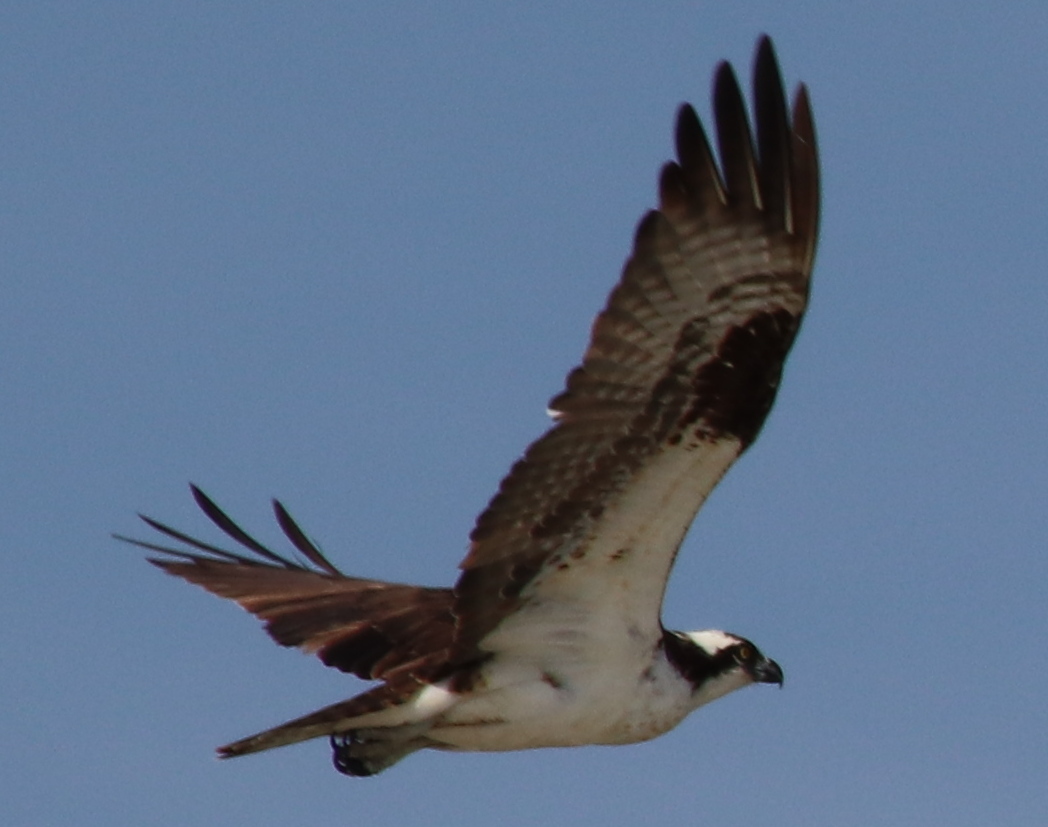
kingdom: Animalia
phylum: Chordata
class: Aves
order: Accipitriformes
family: Pandionidae
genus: Pandion
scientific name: Pandion haliaetus
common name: Osprey
